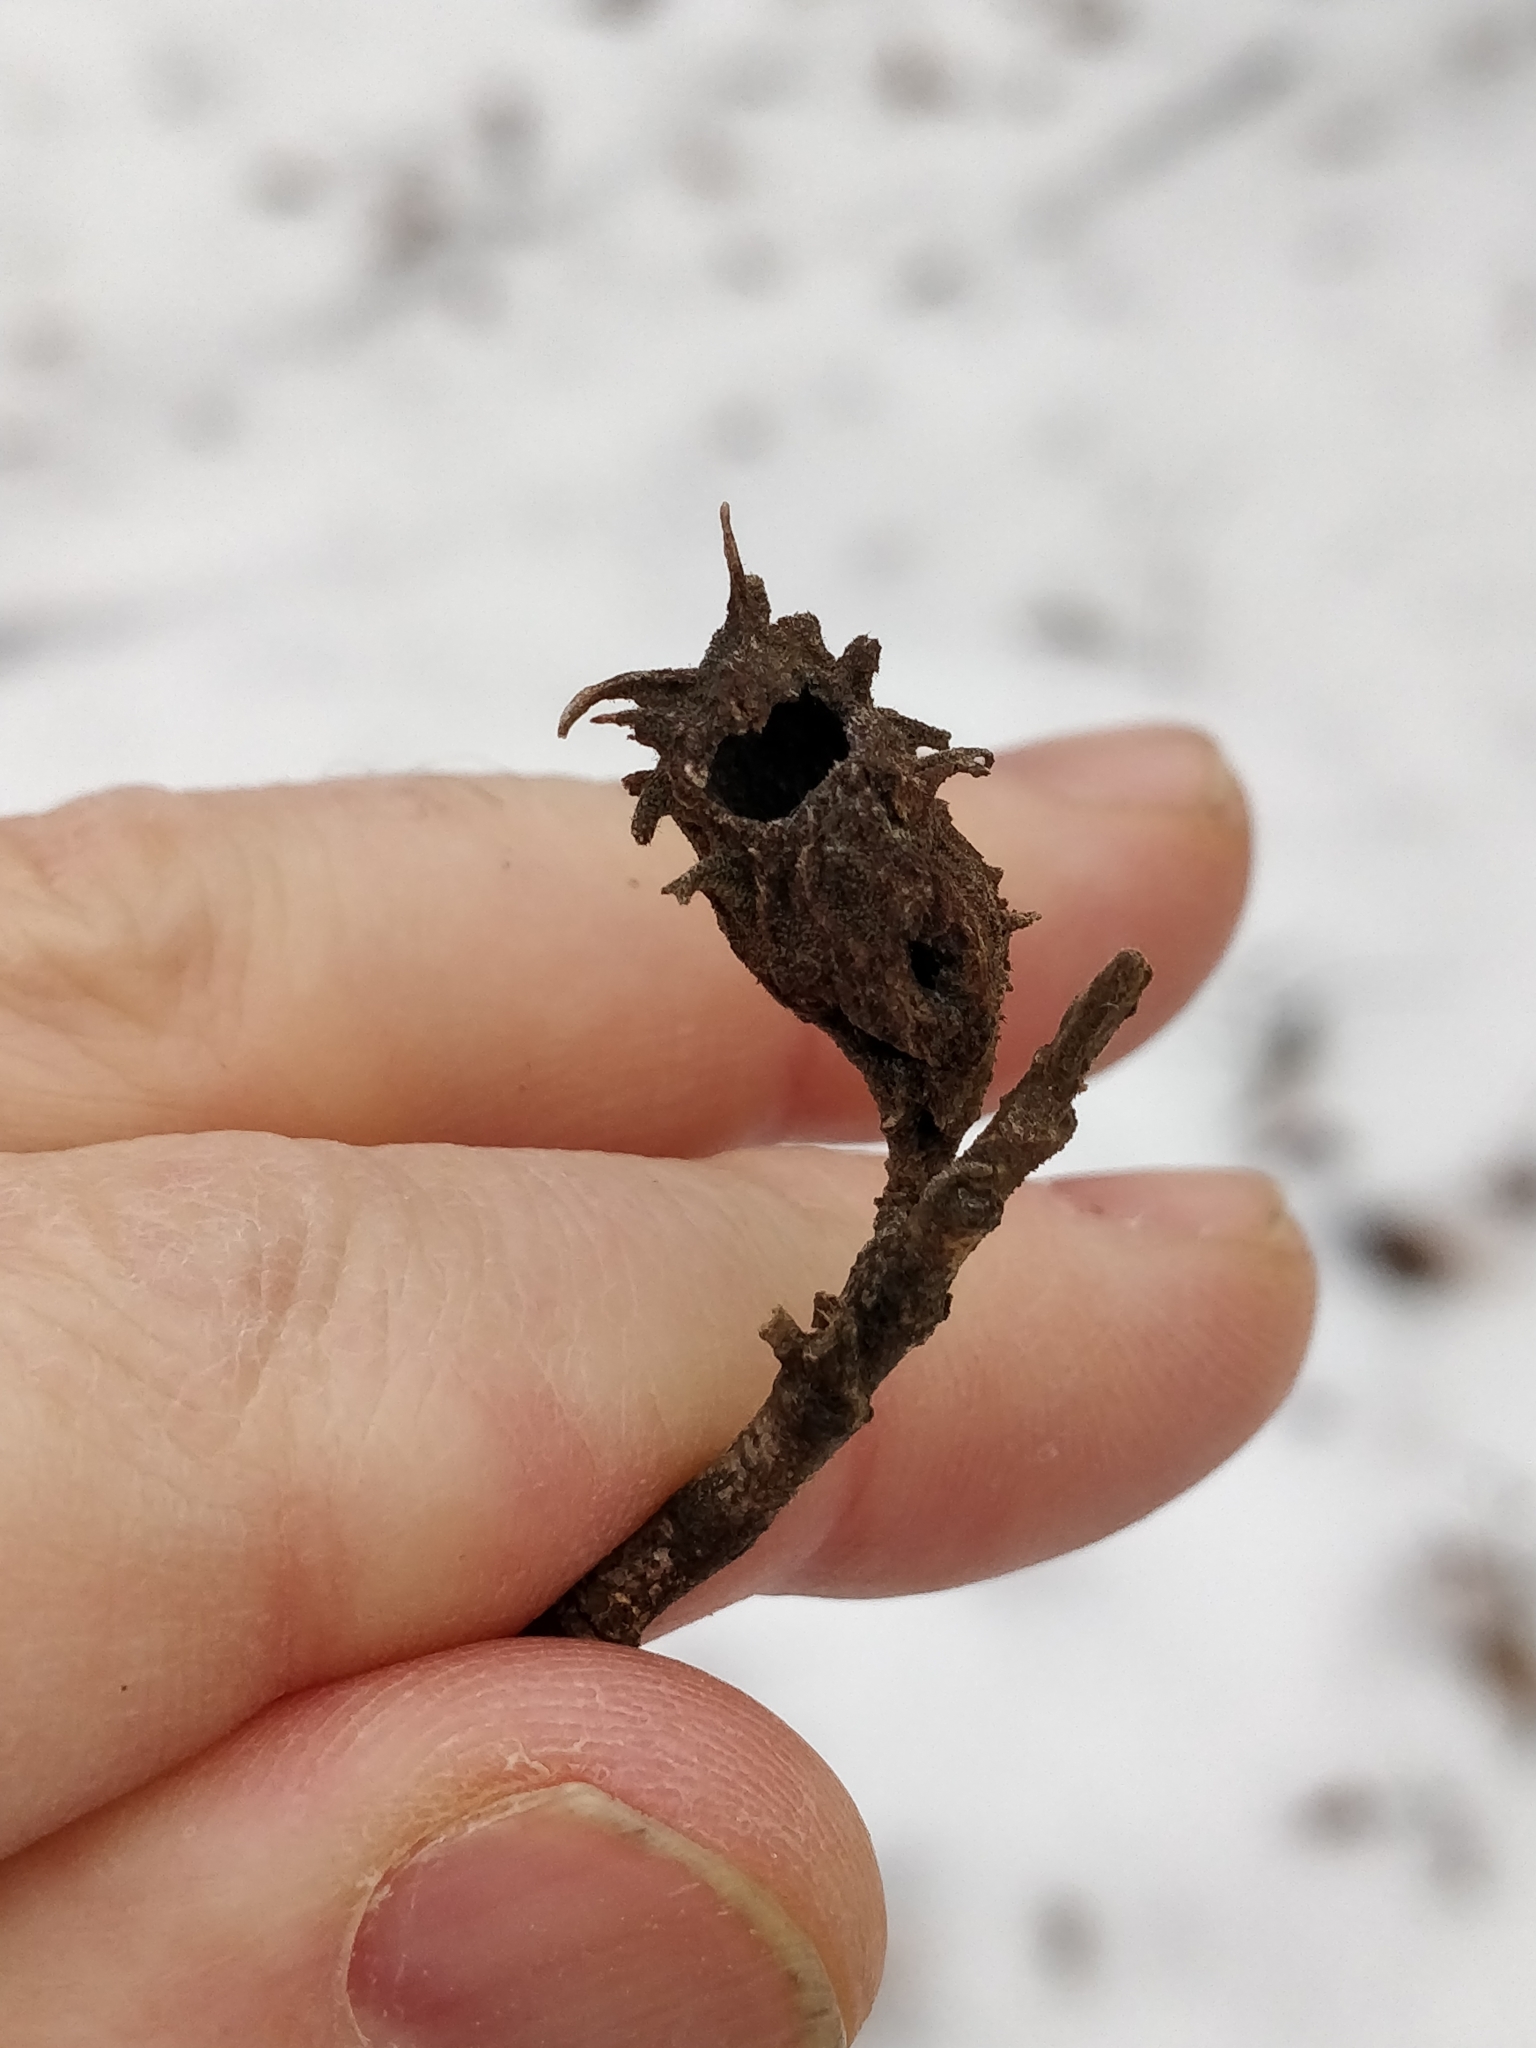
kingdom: Animalia
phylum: Arthropoda
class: Insecta
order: Hemiptera
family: Aphididae
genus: Hamamelistes
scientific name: Hamamelistes spinosus
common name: Witch hazel gall aphid
